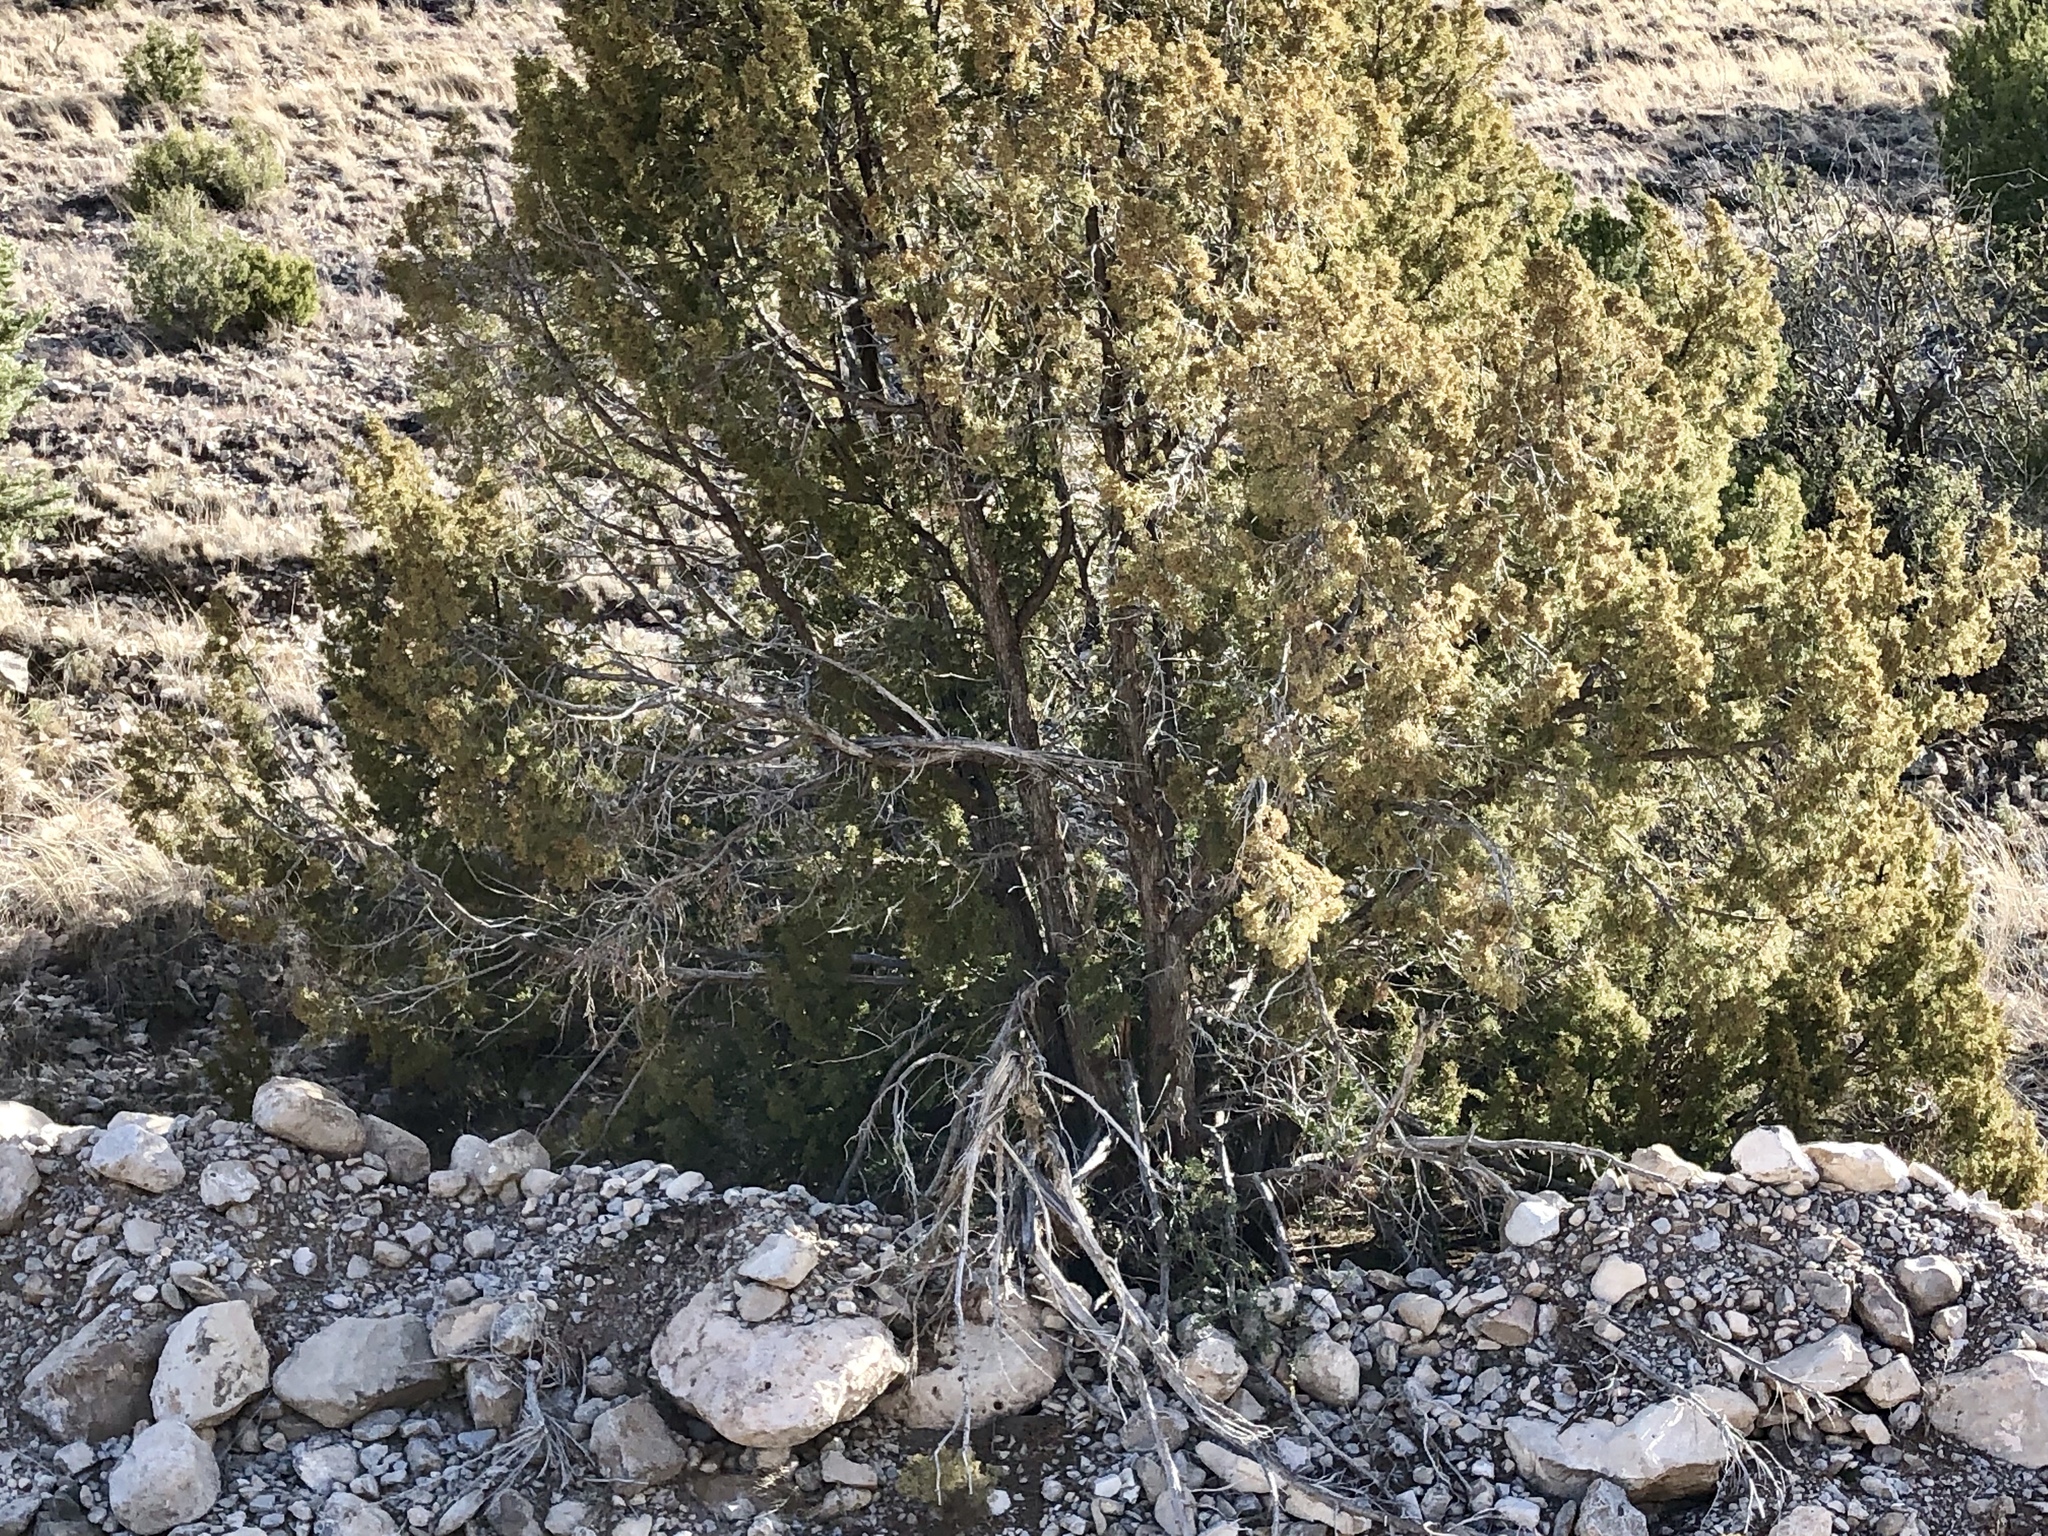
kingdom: Plantae
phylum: Tracheophyta
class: Pinopsida
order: Pinales
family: Cupressaceae
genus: Juniperus
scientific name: Juniperus monosperma
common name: One-seed juniper
